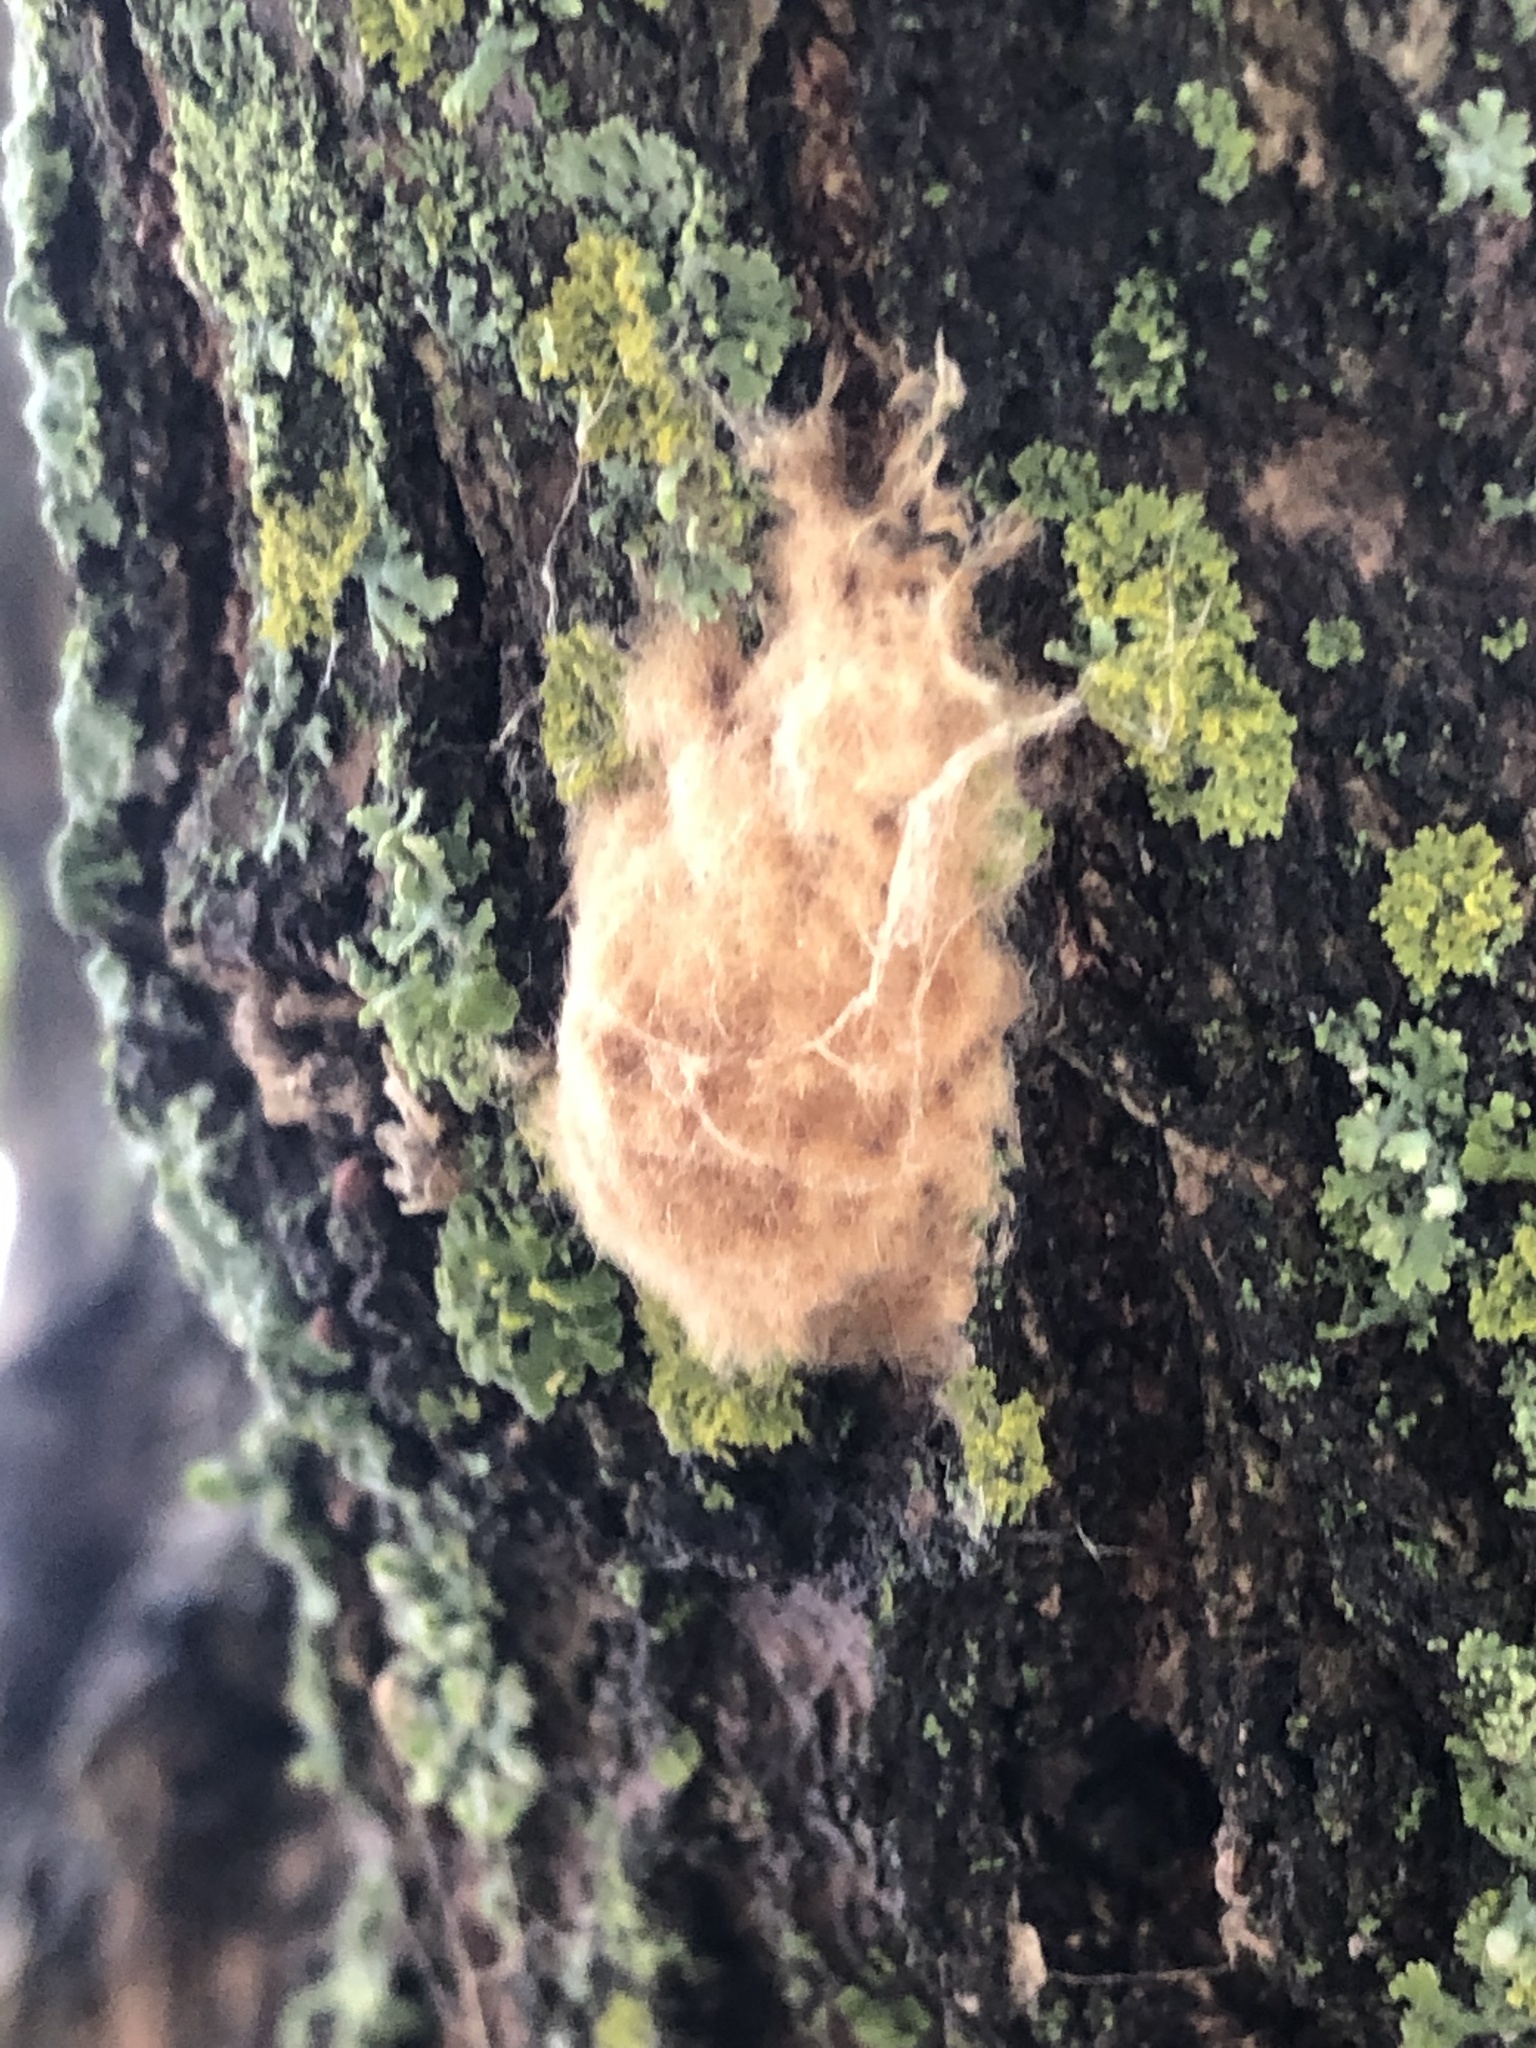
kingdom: Animalia
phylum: Arthropoda
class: Insecta
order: Lepidoptera
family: Erebidae
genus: Lymantria
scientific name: Lymantria dispar
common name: Gypsy moth
